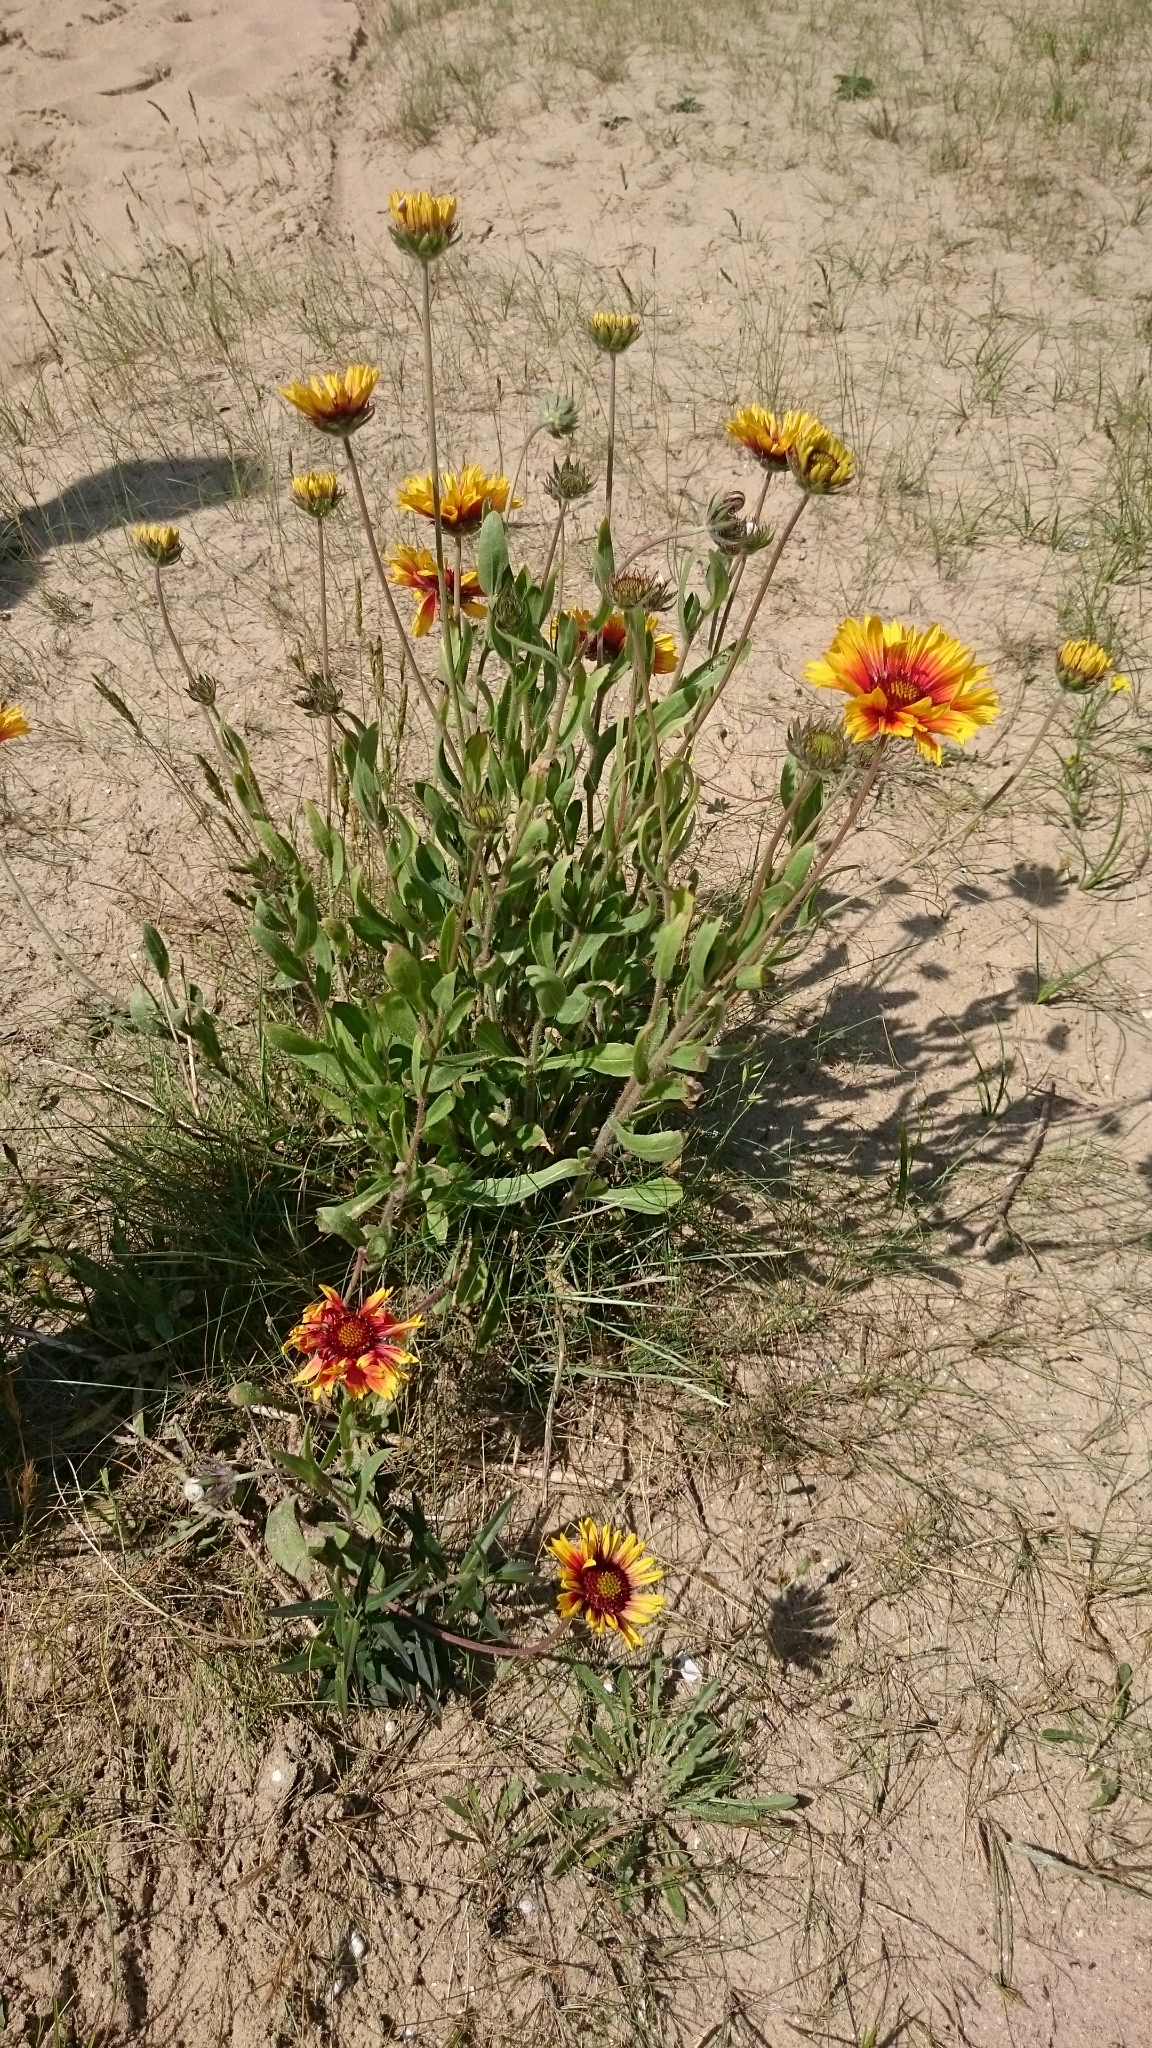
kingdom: Plantae
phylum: Tracheophyta
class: Magnoliopsida
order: Asterales
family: Asteraceae
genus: Gaillardia
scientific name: Gaillardia grandiflora
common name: Blanket flower
